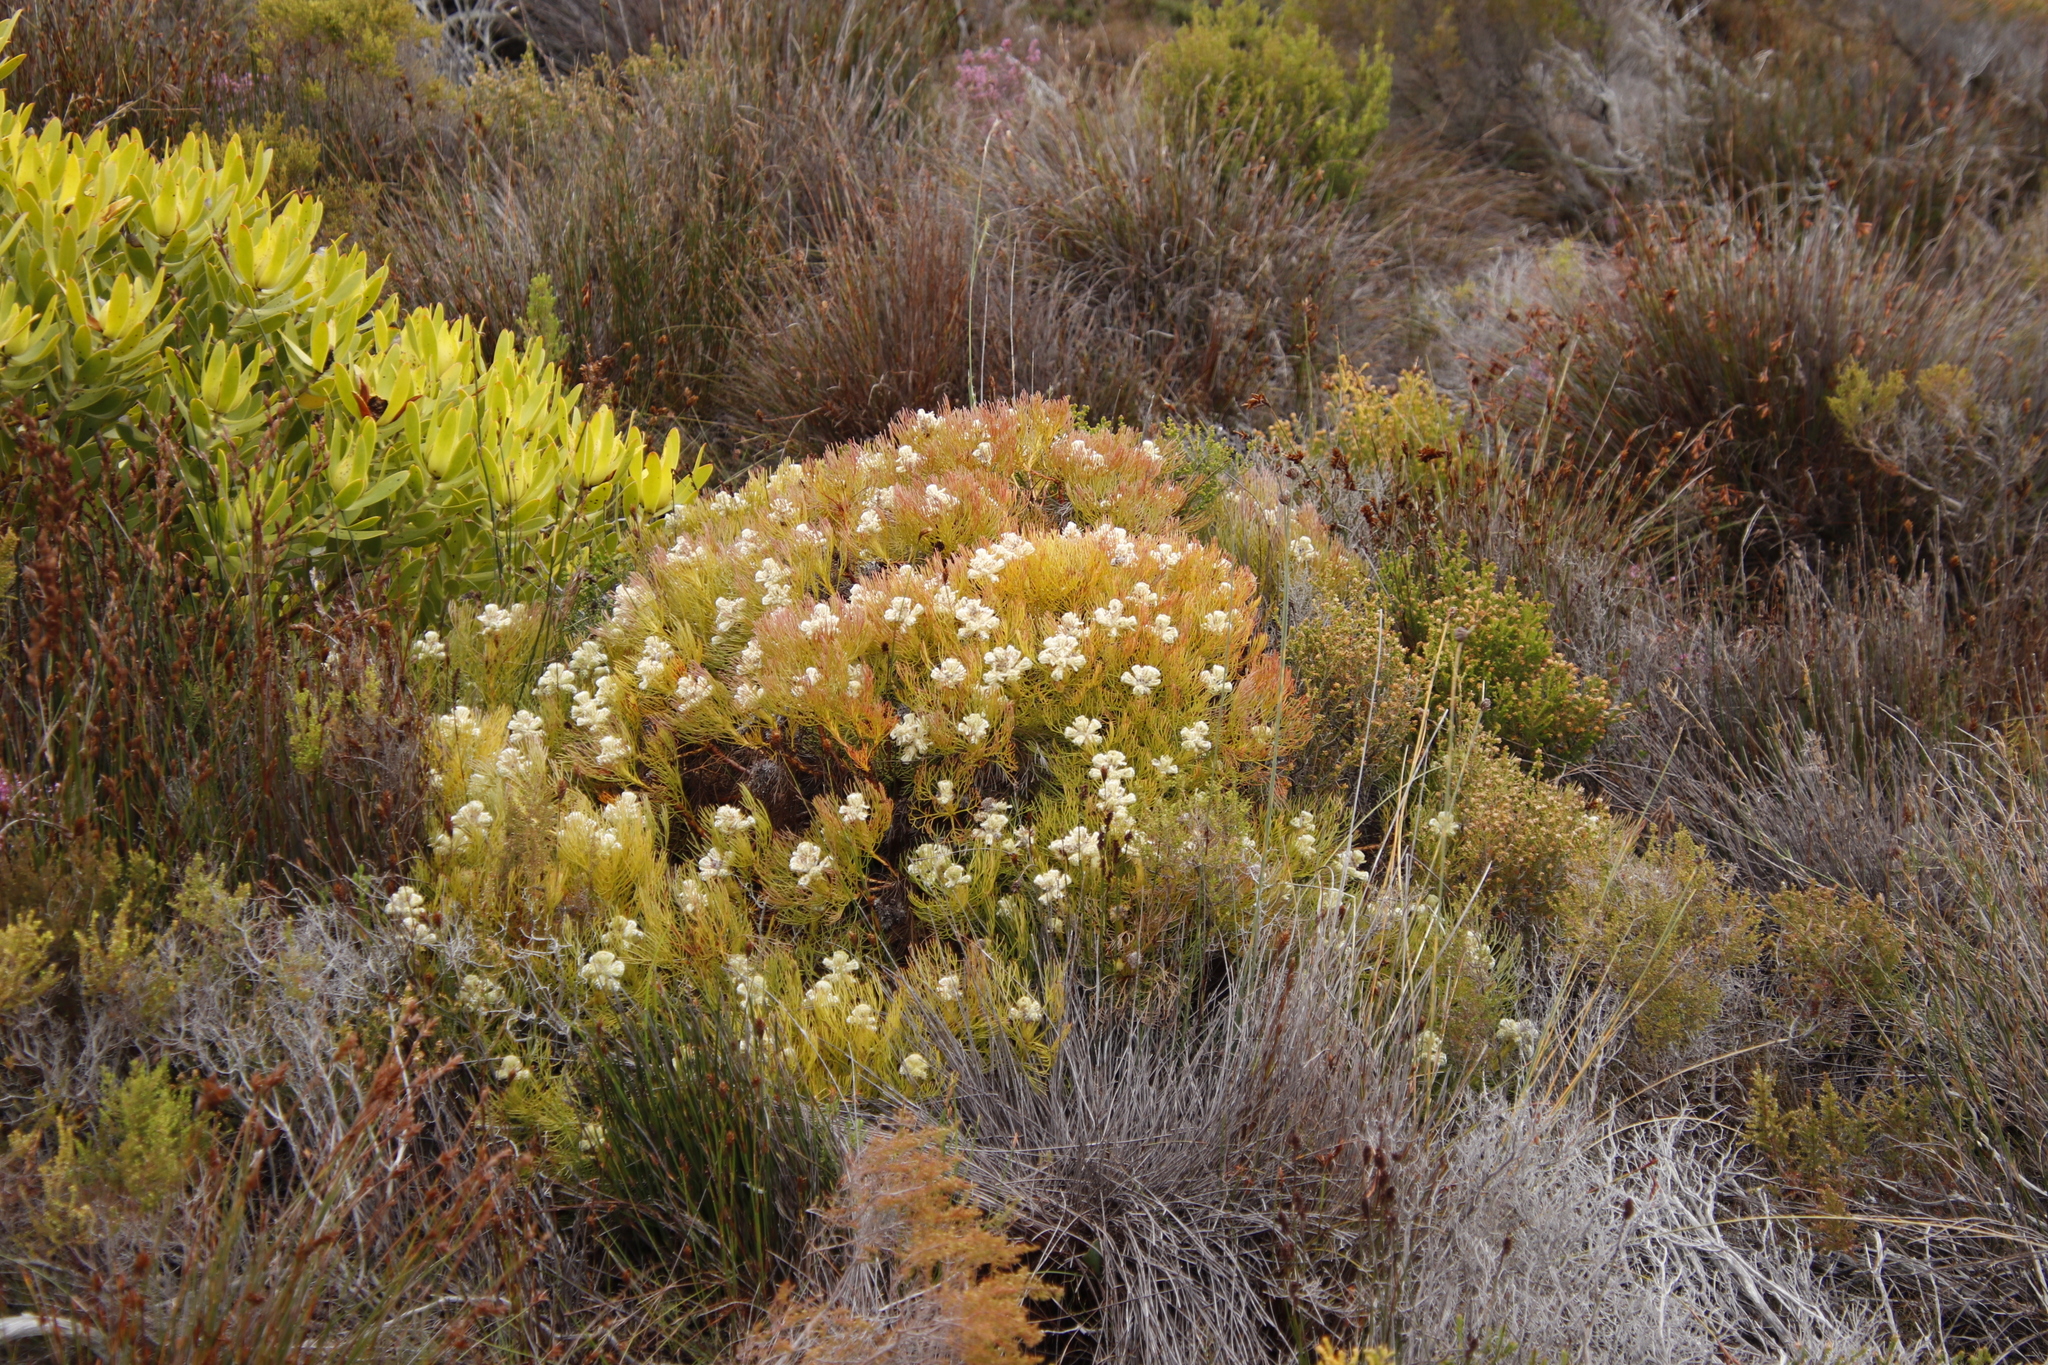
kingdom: Plantae
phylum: Tracheophyta
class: Magnoliopsida
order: Proteales
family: Proteaceae
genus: Serruria
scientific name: Serruria villosa
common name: Golden spiderhead
